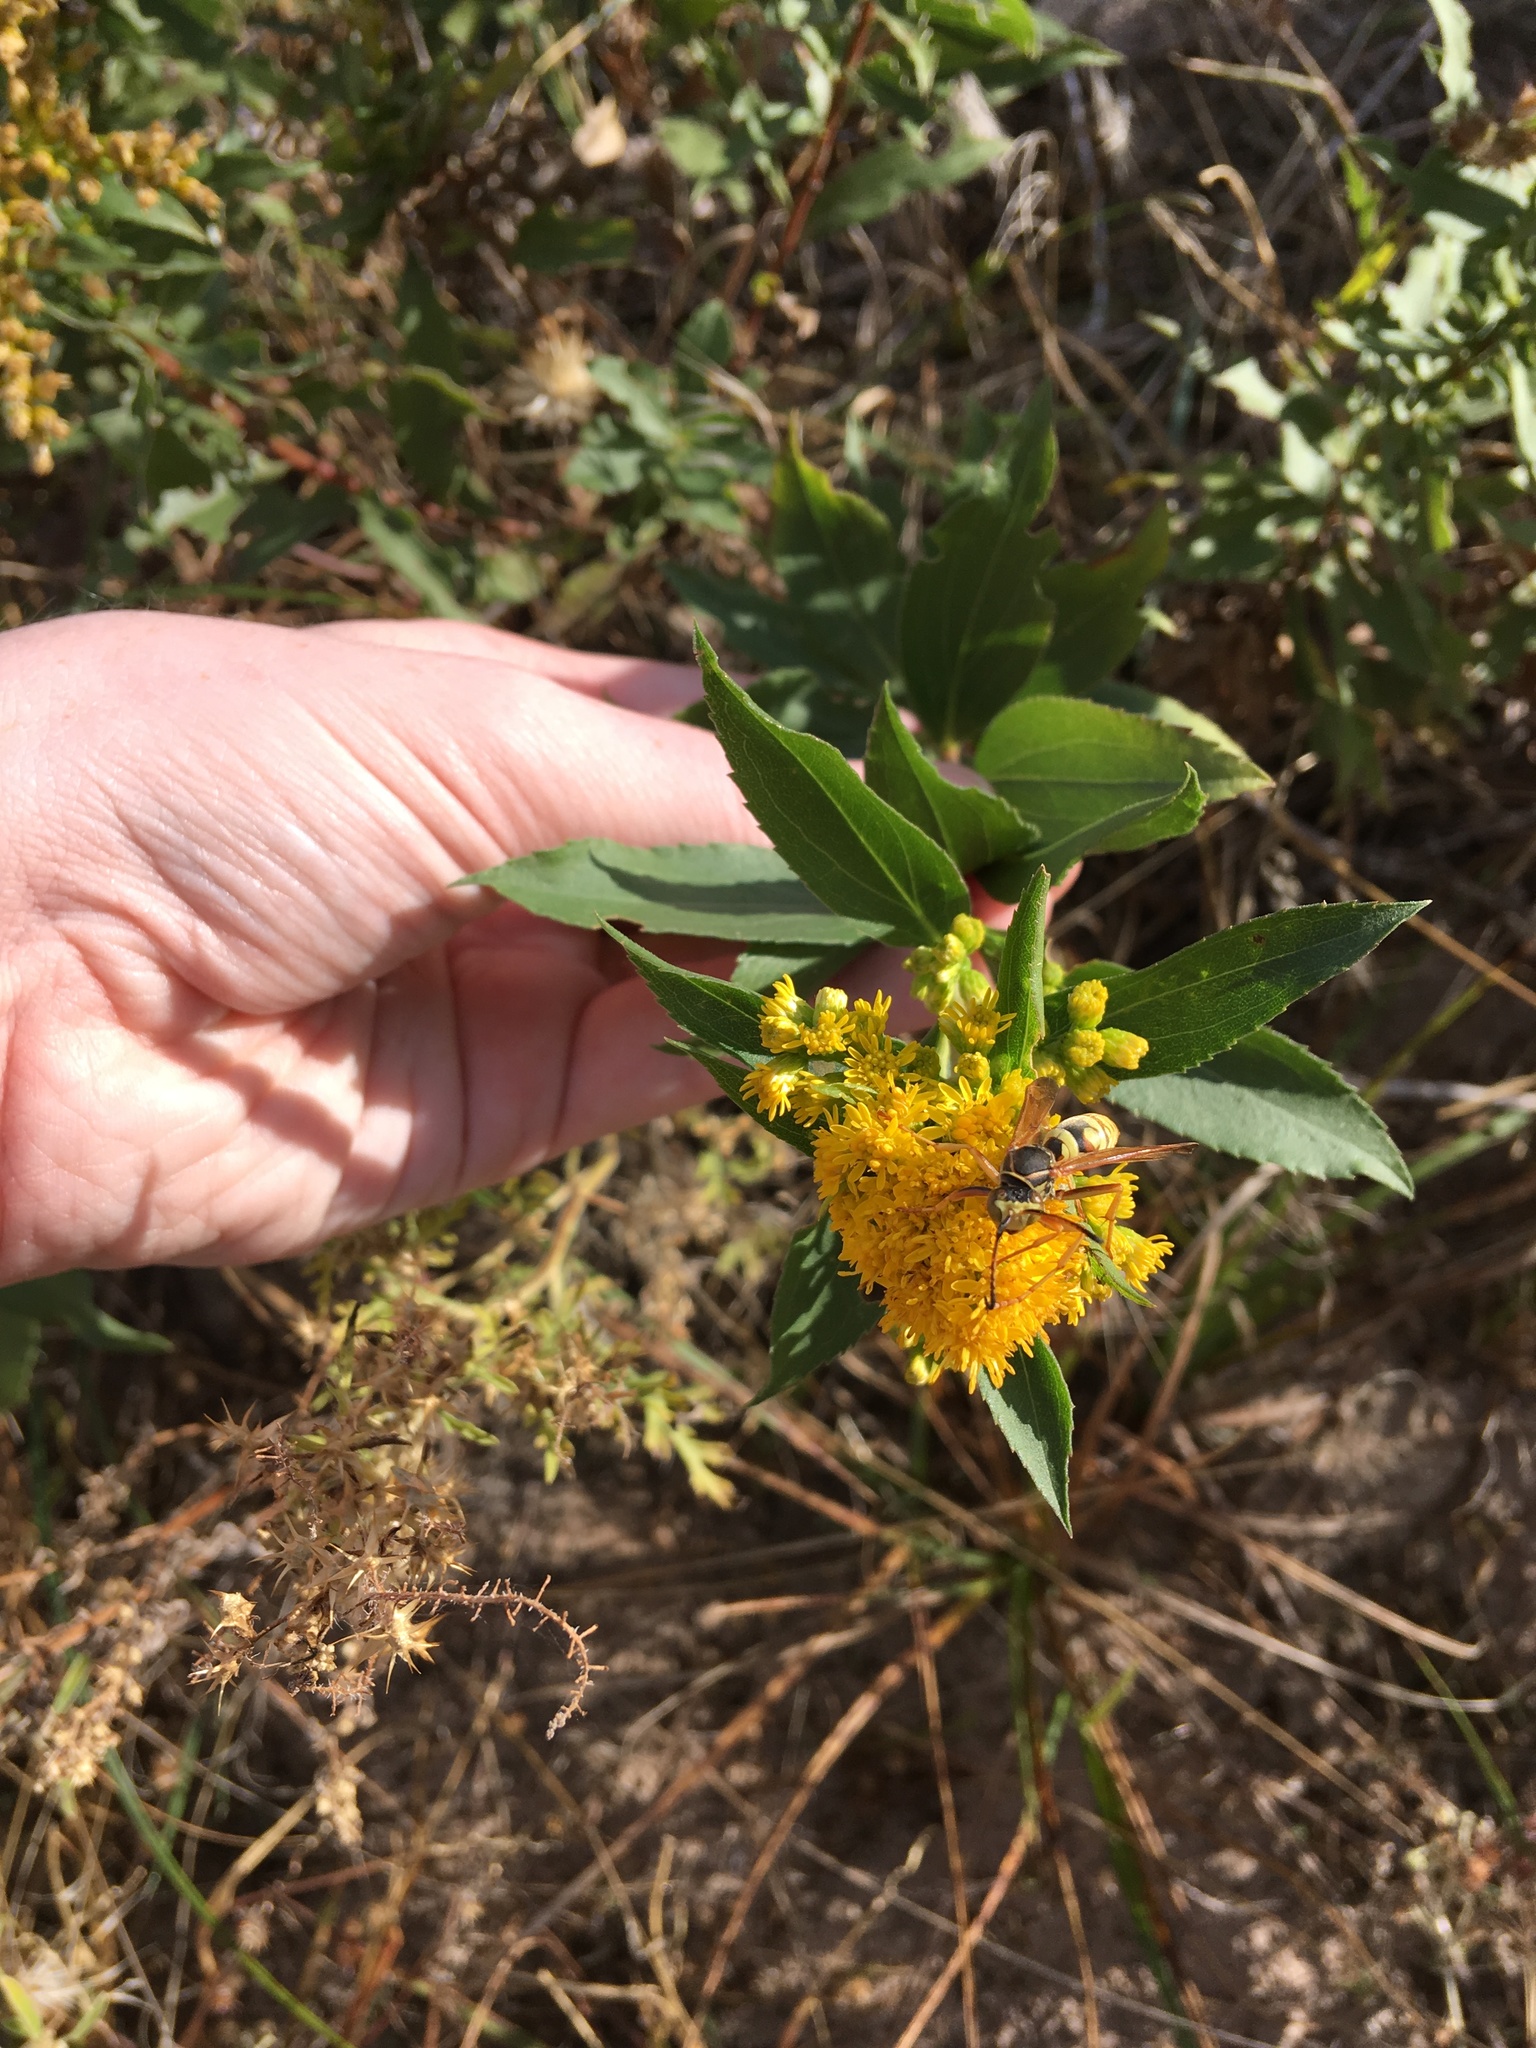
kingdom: Animalia
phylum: Arthropoda
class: Insecta
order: Hymenoptera
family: Eumenidae
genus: Polistes
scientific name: Polistes aurifer
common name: Paper wasp
